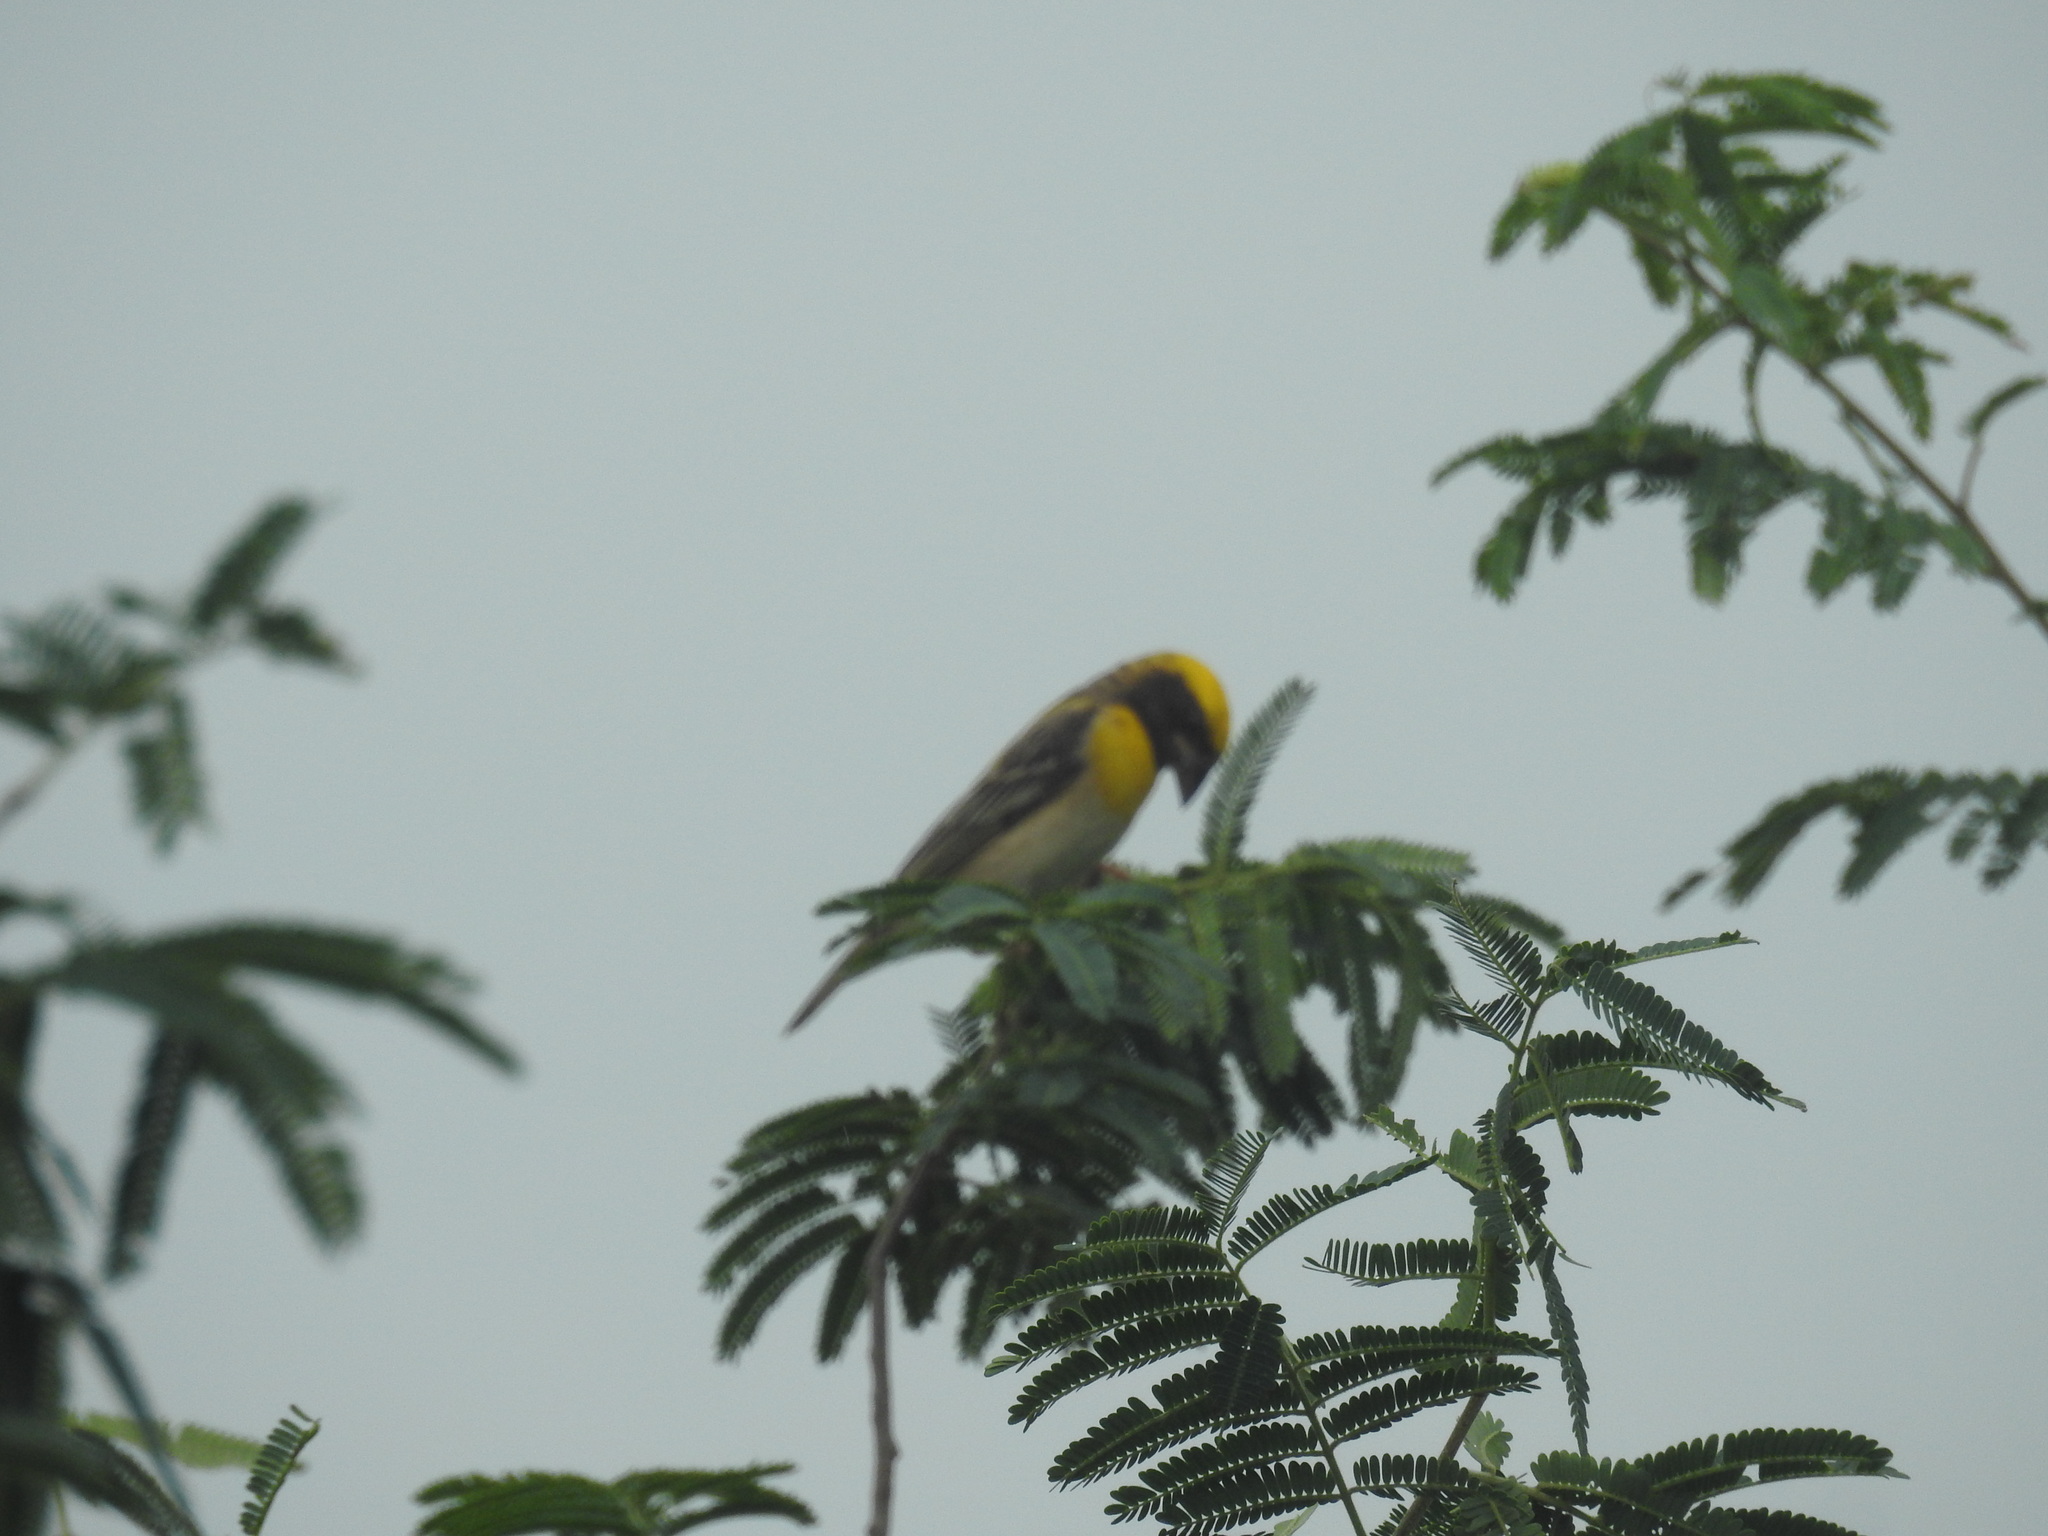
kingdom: Animalia
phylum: Chordata
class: Aves
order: Passeriformes
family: Ploceidae
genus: Ploceus
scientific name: Ploceus philippinus
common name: Baya weaver
